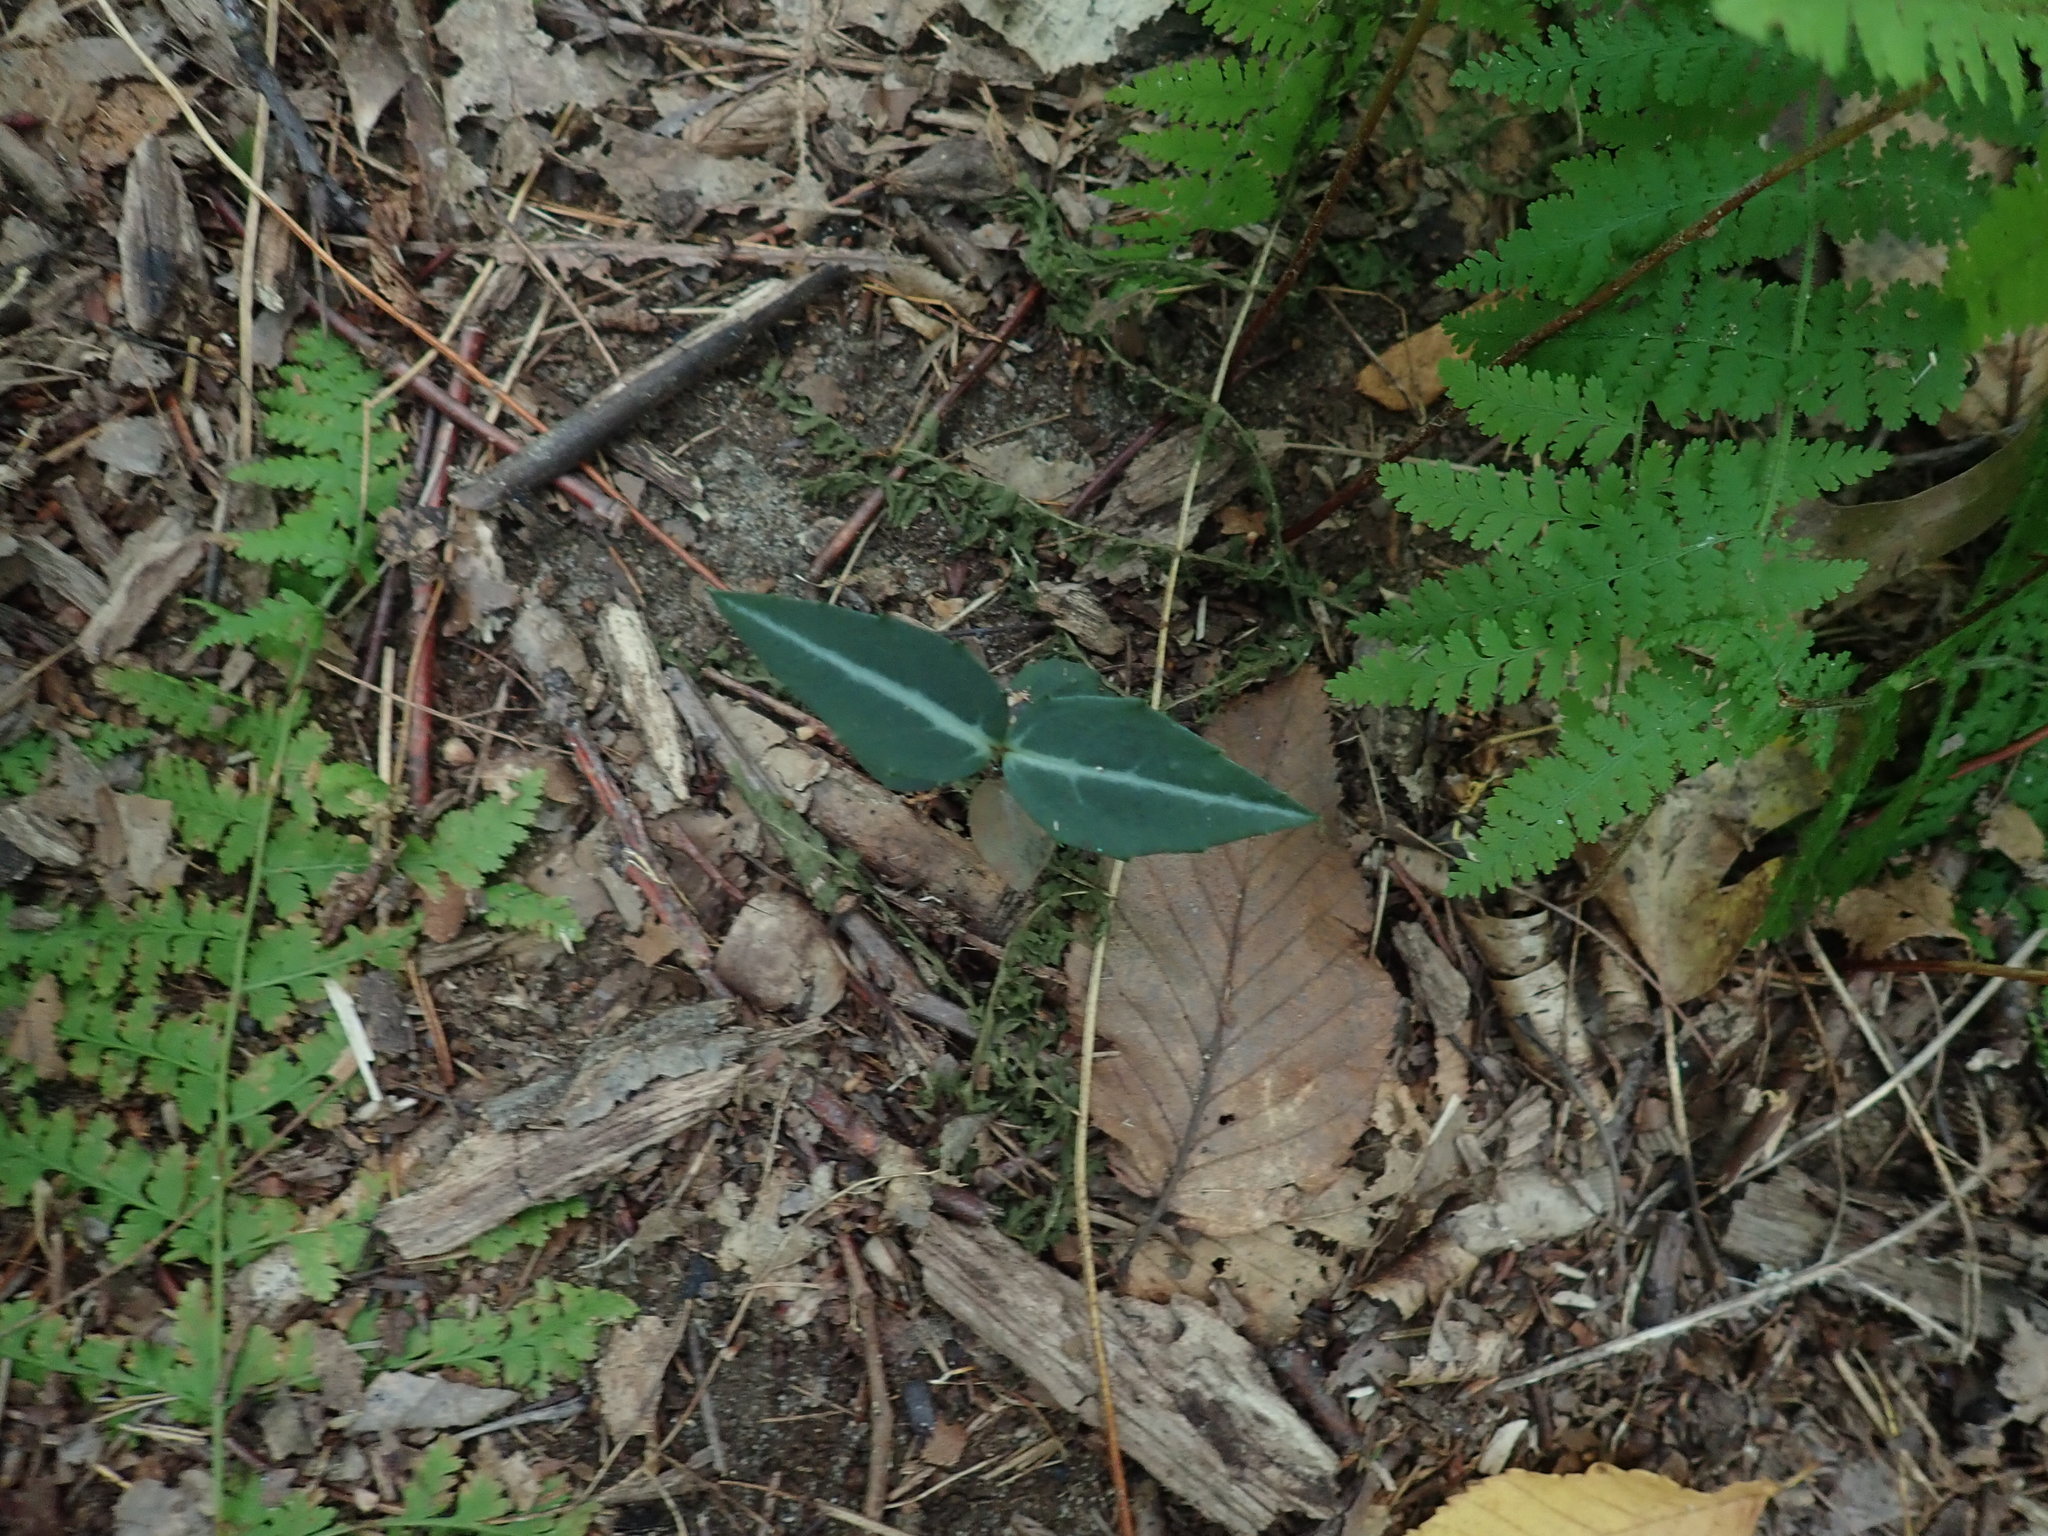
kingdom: Plantae
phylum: Tracheophyta
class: Magnoliopsida
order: Ericales
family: Ericaceae
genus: Chimaphila
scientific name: Chimaphila maculata
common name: Spotted pipsissewa
